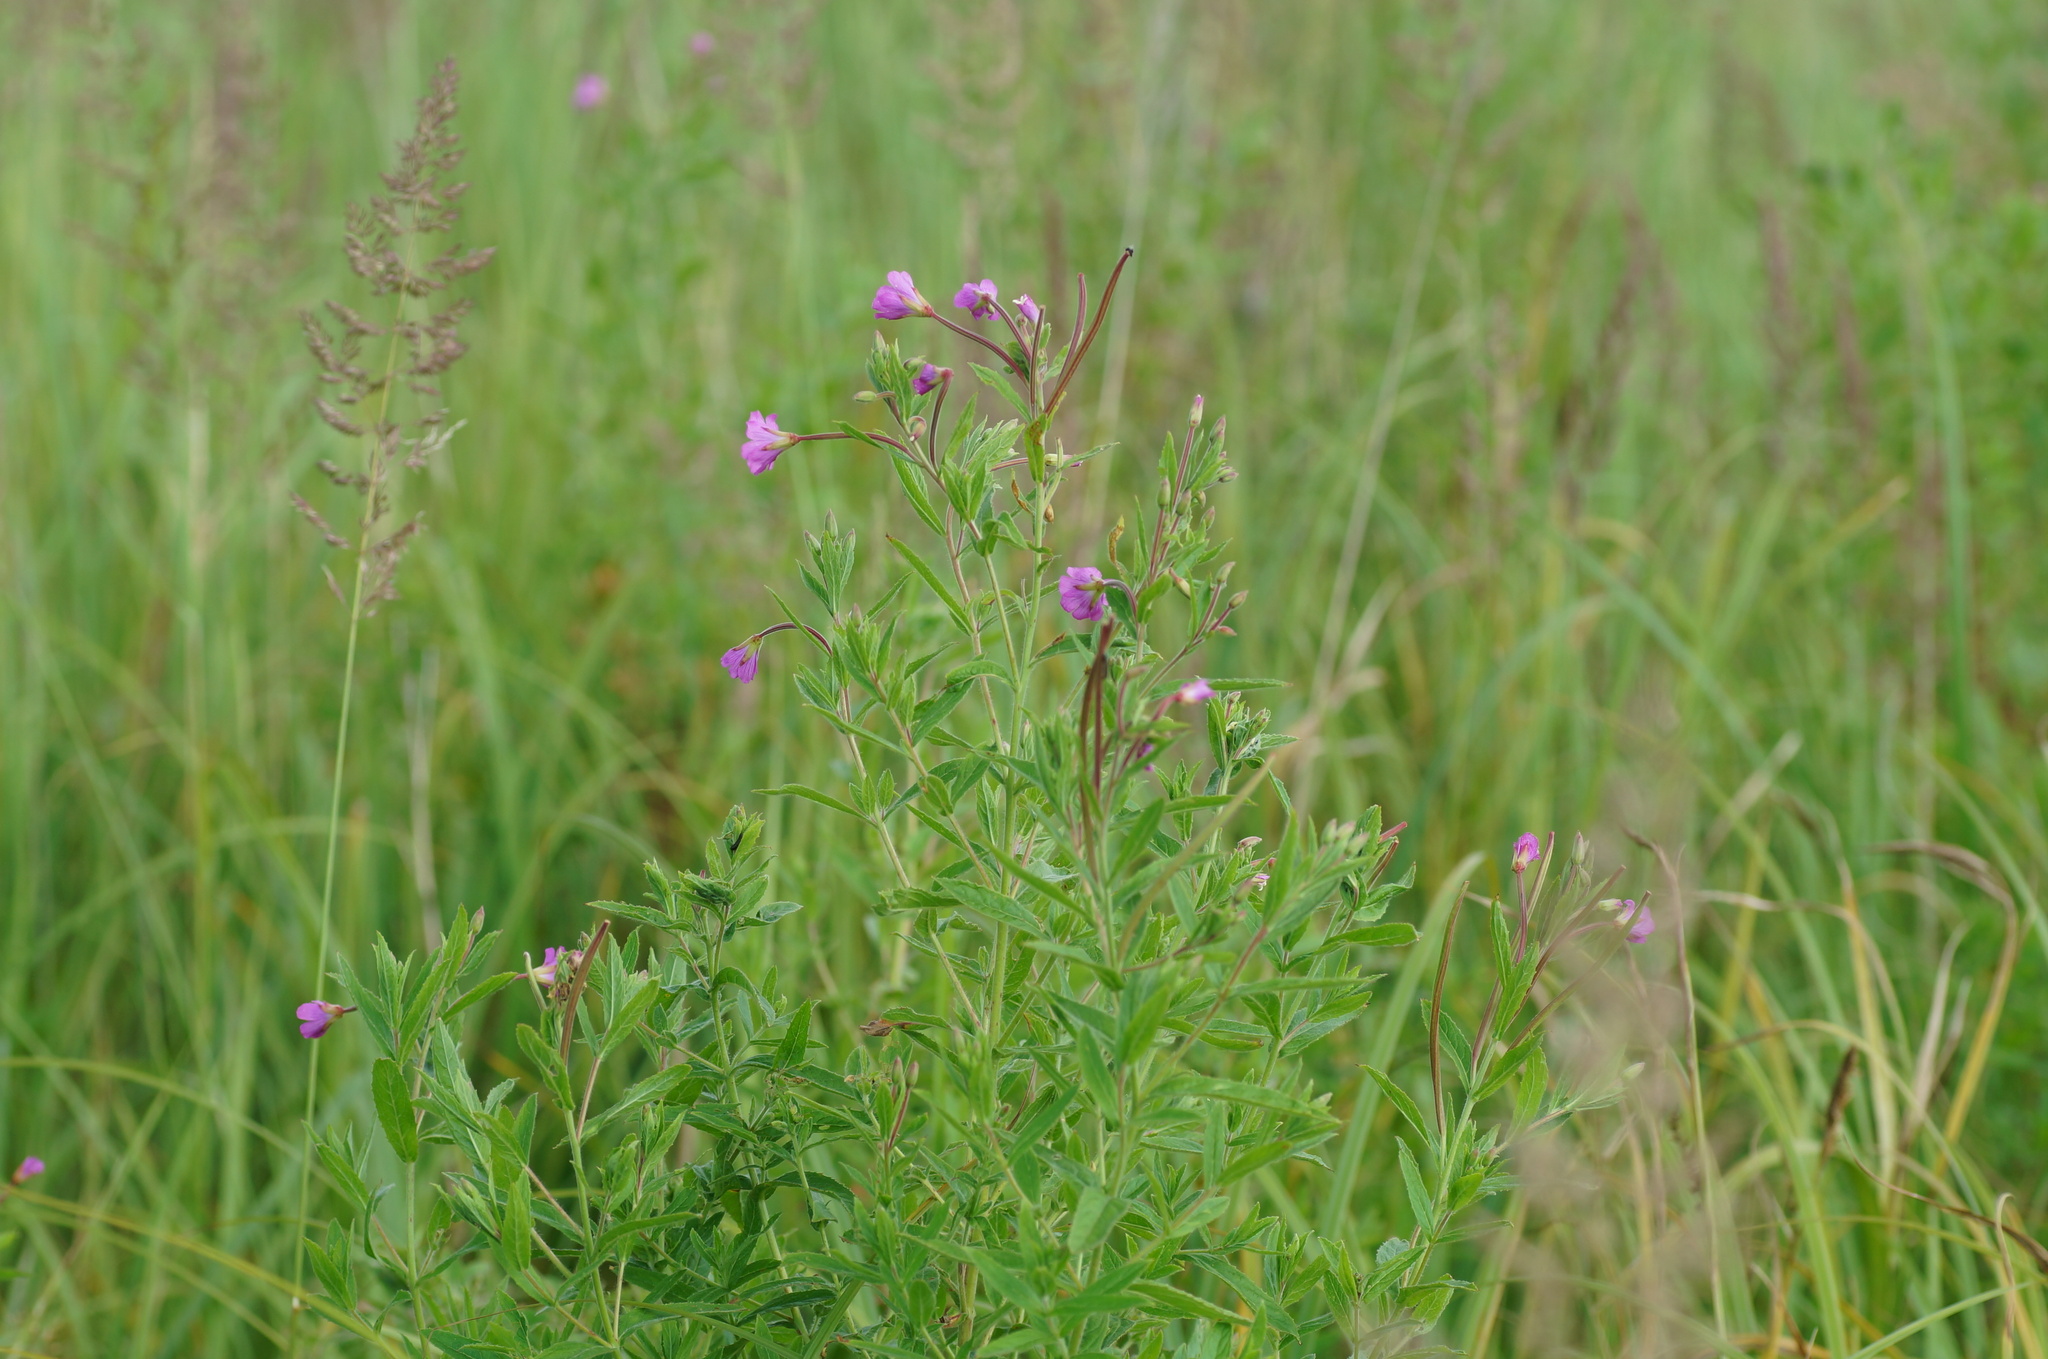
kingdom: Plantae
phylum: Tracheophyta
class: Magnoliopsida
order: Myrtales
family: Onagraceae
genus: Epilobium
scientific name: Epilobium hirsutum
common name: Great willowherb
